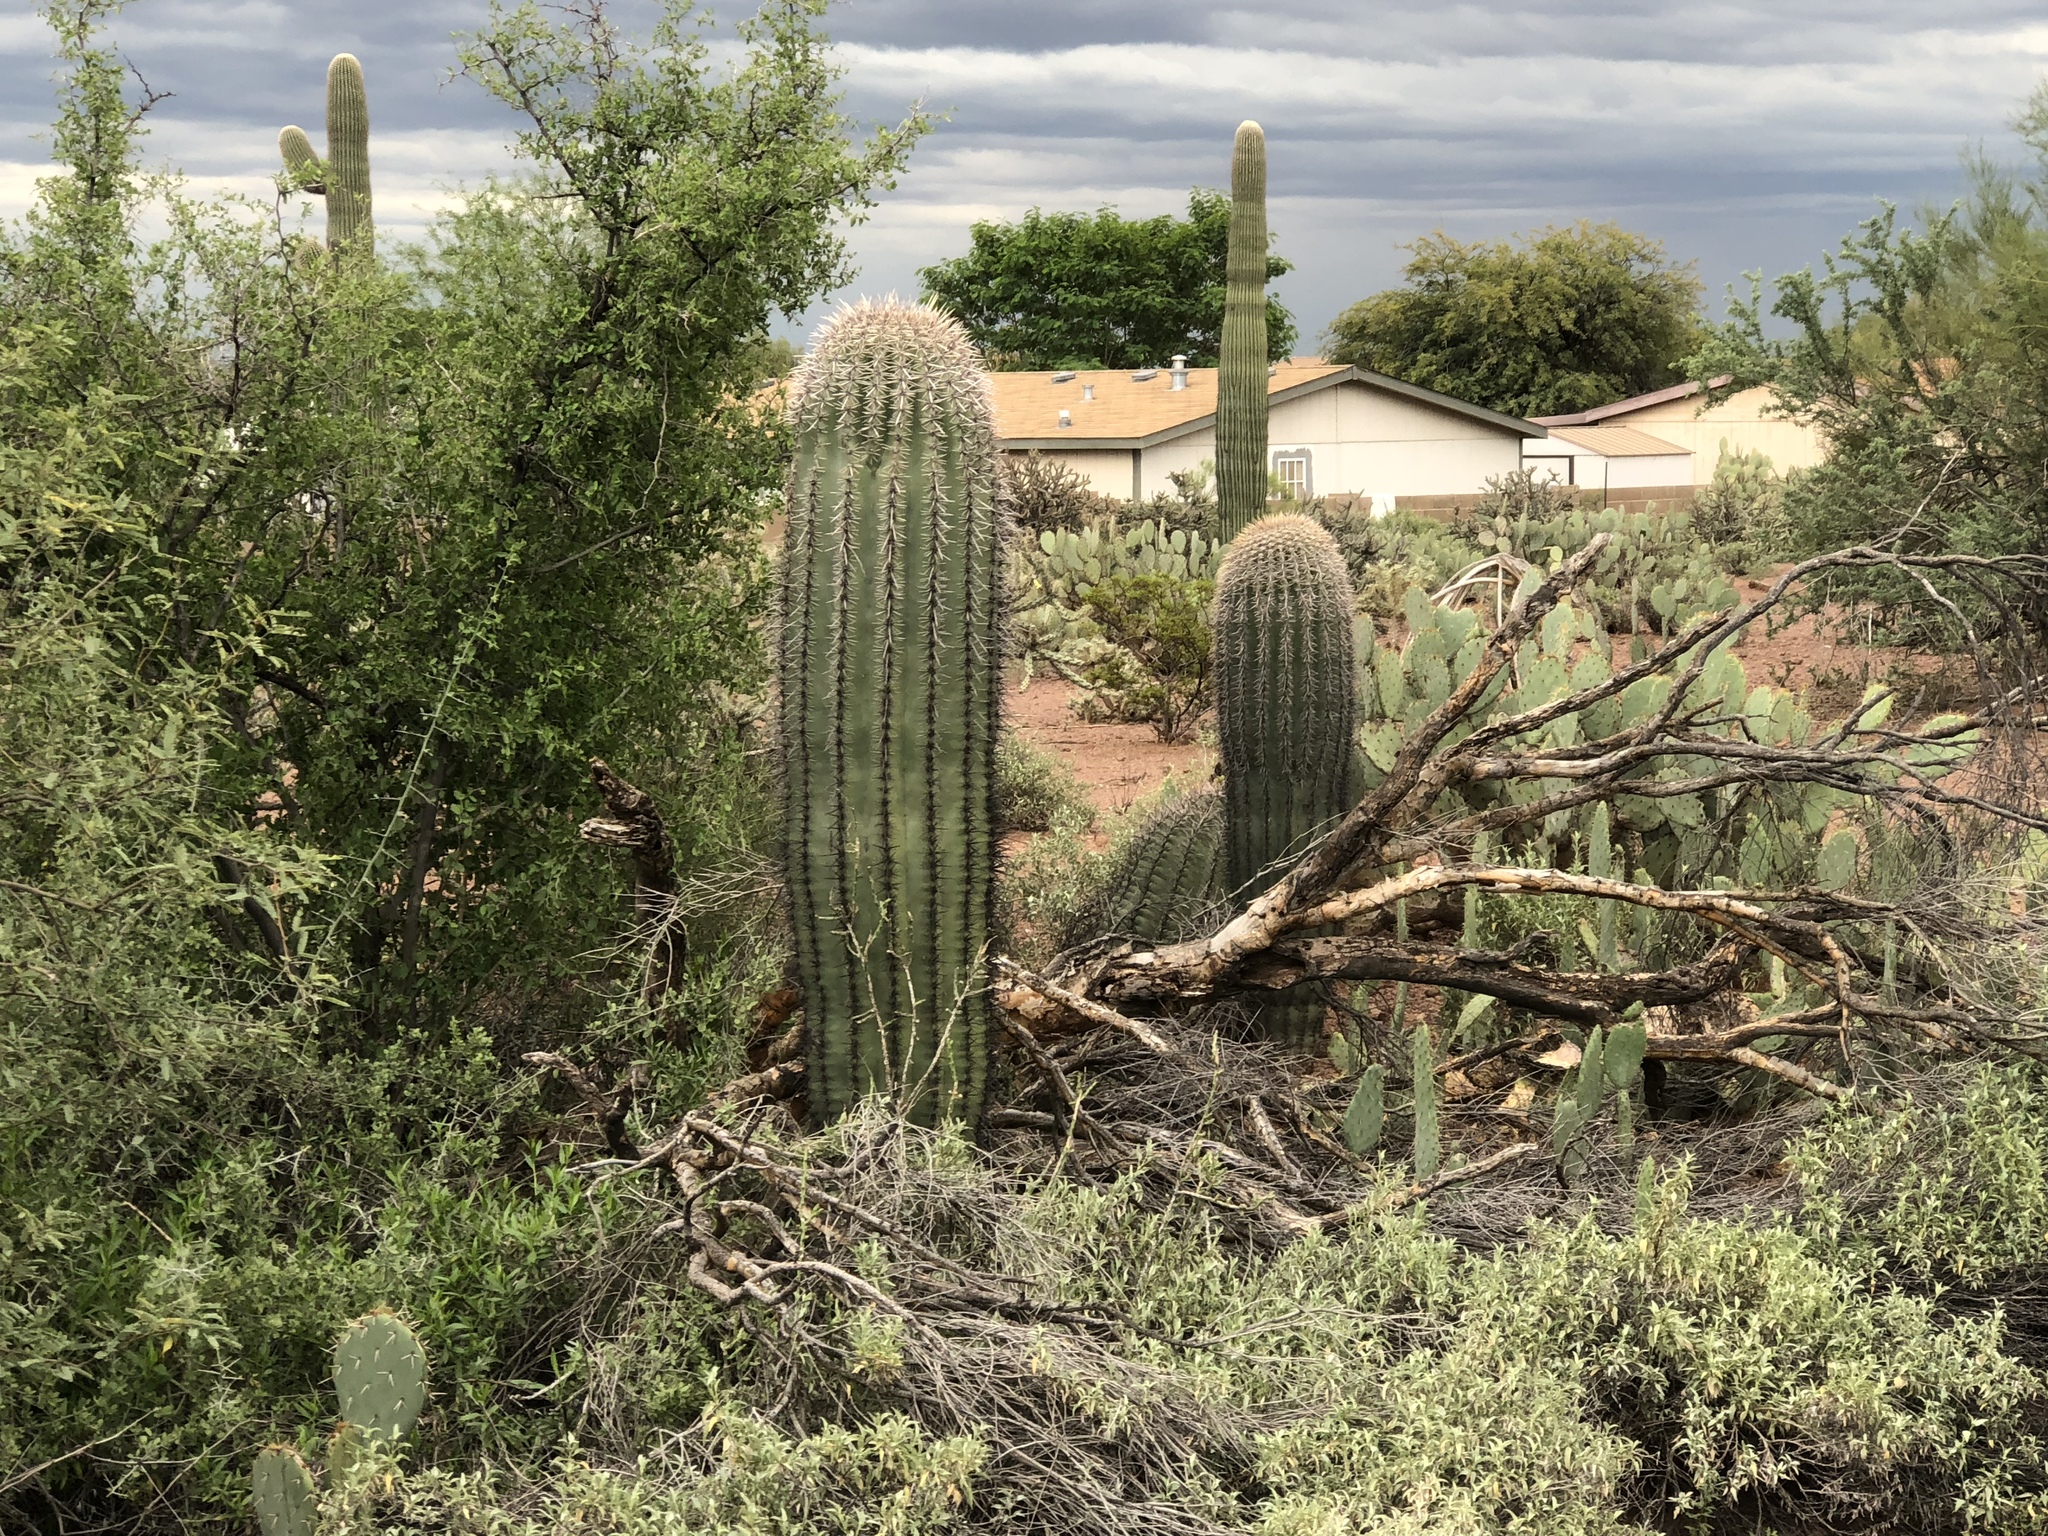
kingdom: Plantae
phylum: Tracheophyta
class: Magnoliopsida
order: Caryophyllales
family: Cactaceae
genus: Carnegiea
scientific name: Carnegiea gigantea
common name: Saguaro
